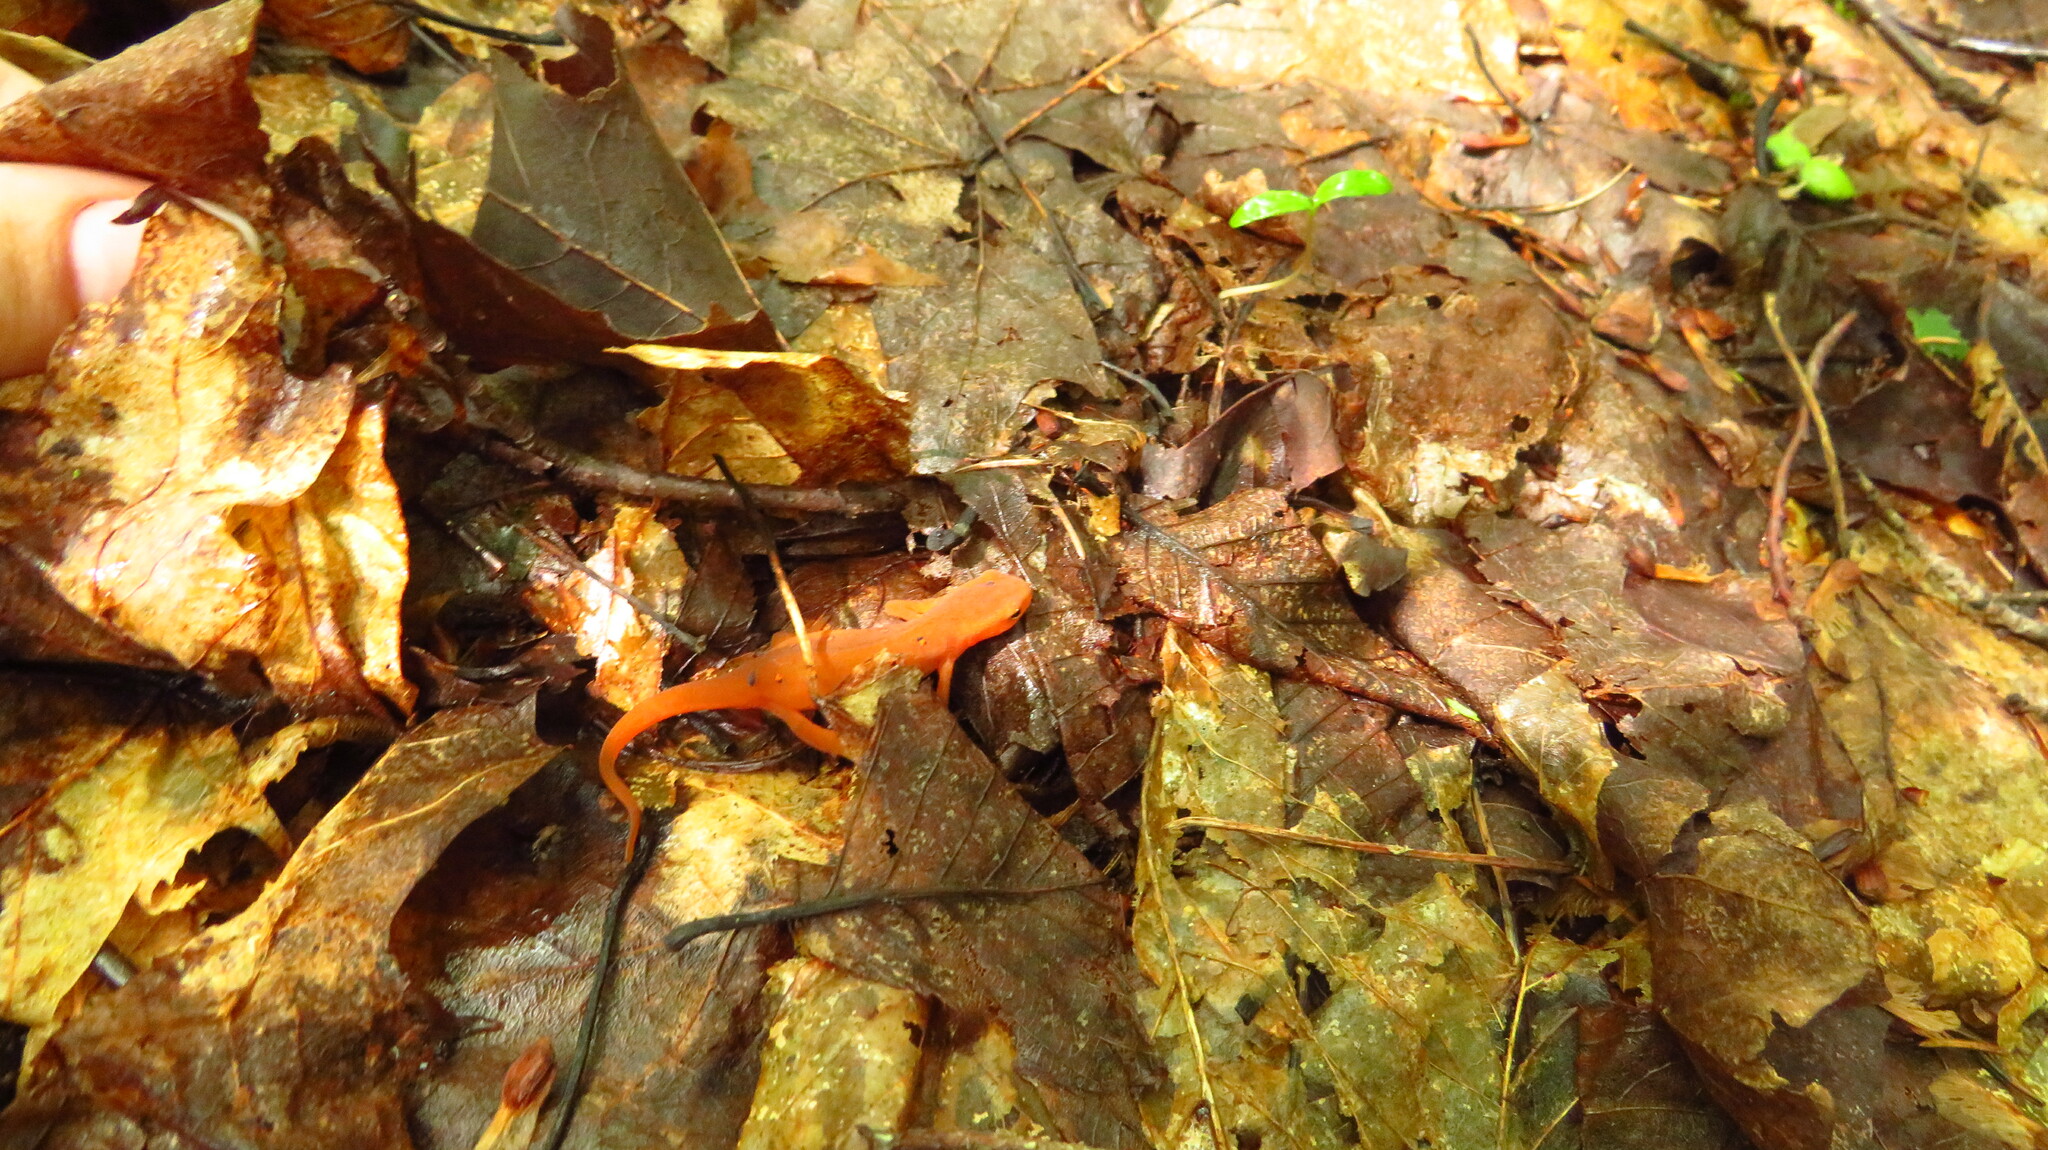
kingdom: Animalia
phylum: Chordata
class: Amphibia
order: Caudata
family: Salamandridae
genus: Notophthalmus
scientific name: Notophthalmus viridescens
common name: Eastern newt
